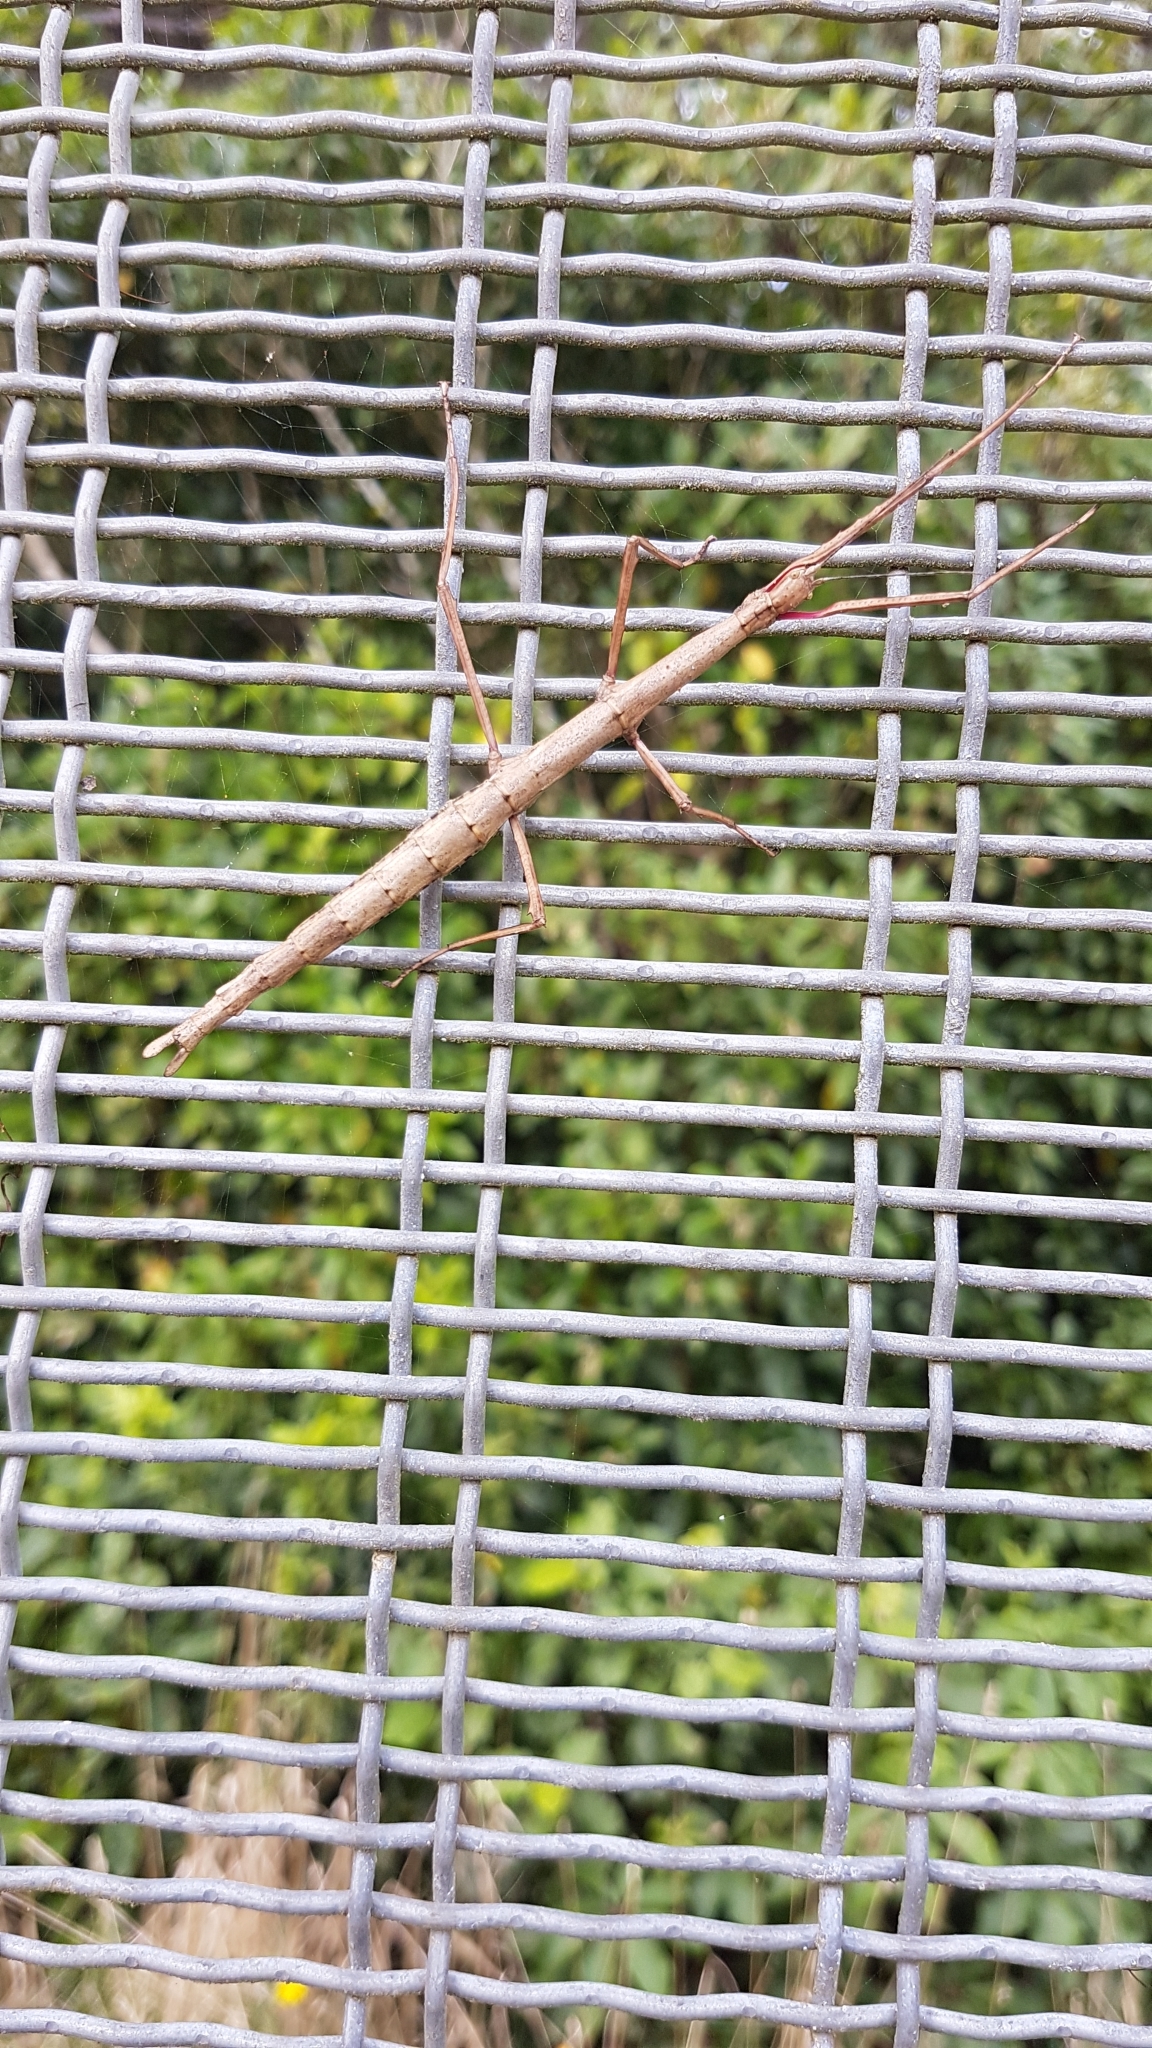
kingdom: Animalia
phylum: Arthropoda
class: Insecta
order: Phasmida
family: Phasmatidae
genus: Acanthoxyla
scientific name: Acanthoxyla inermis
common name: Unarmed stick insect
